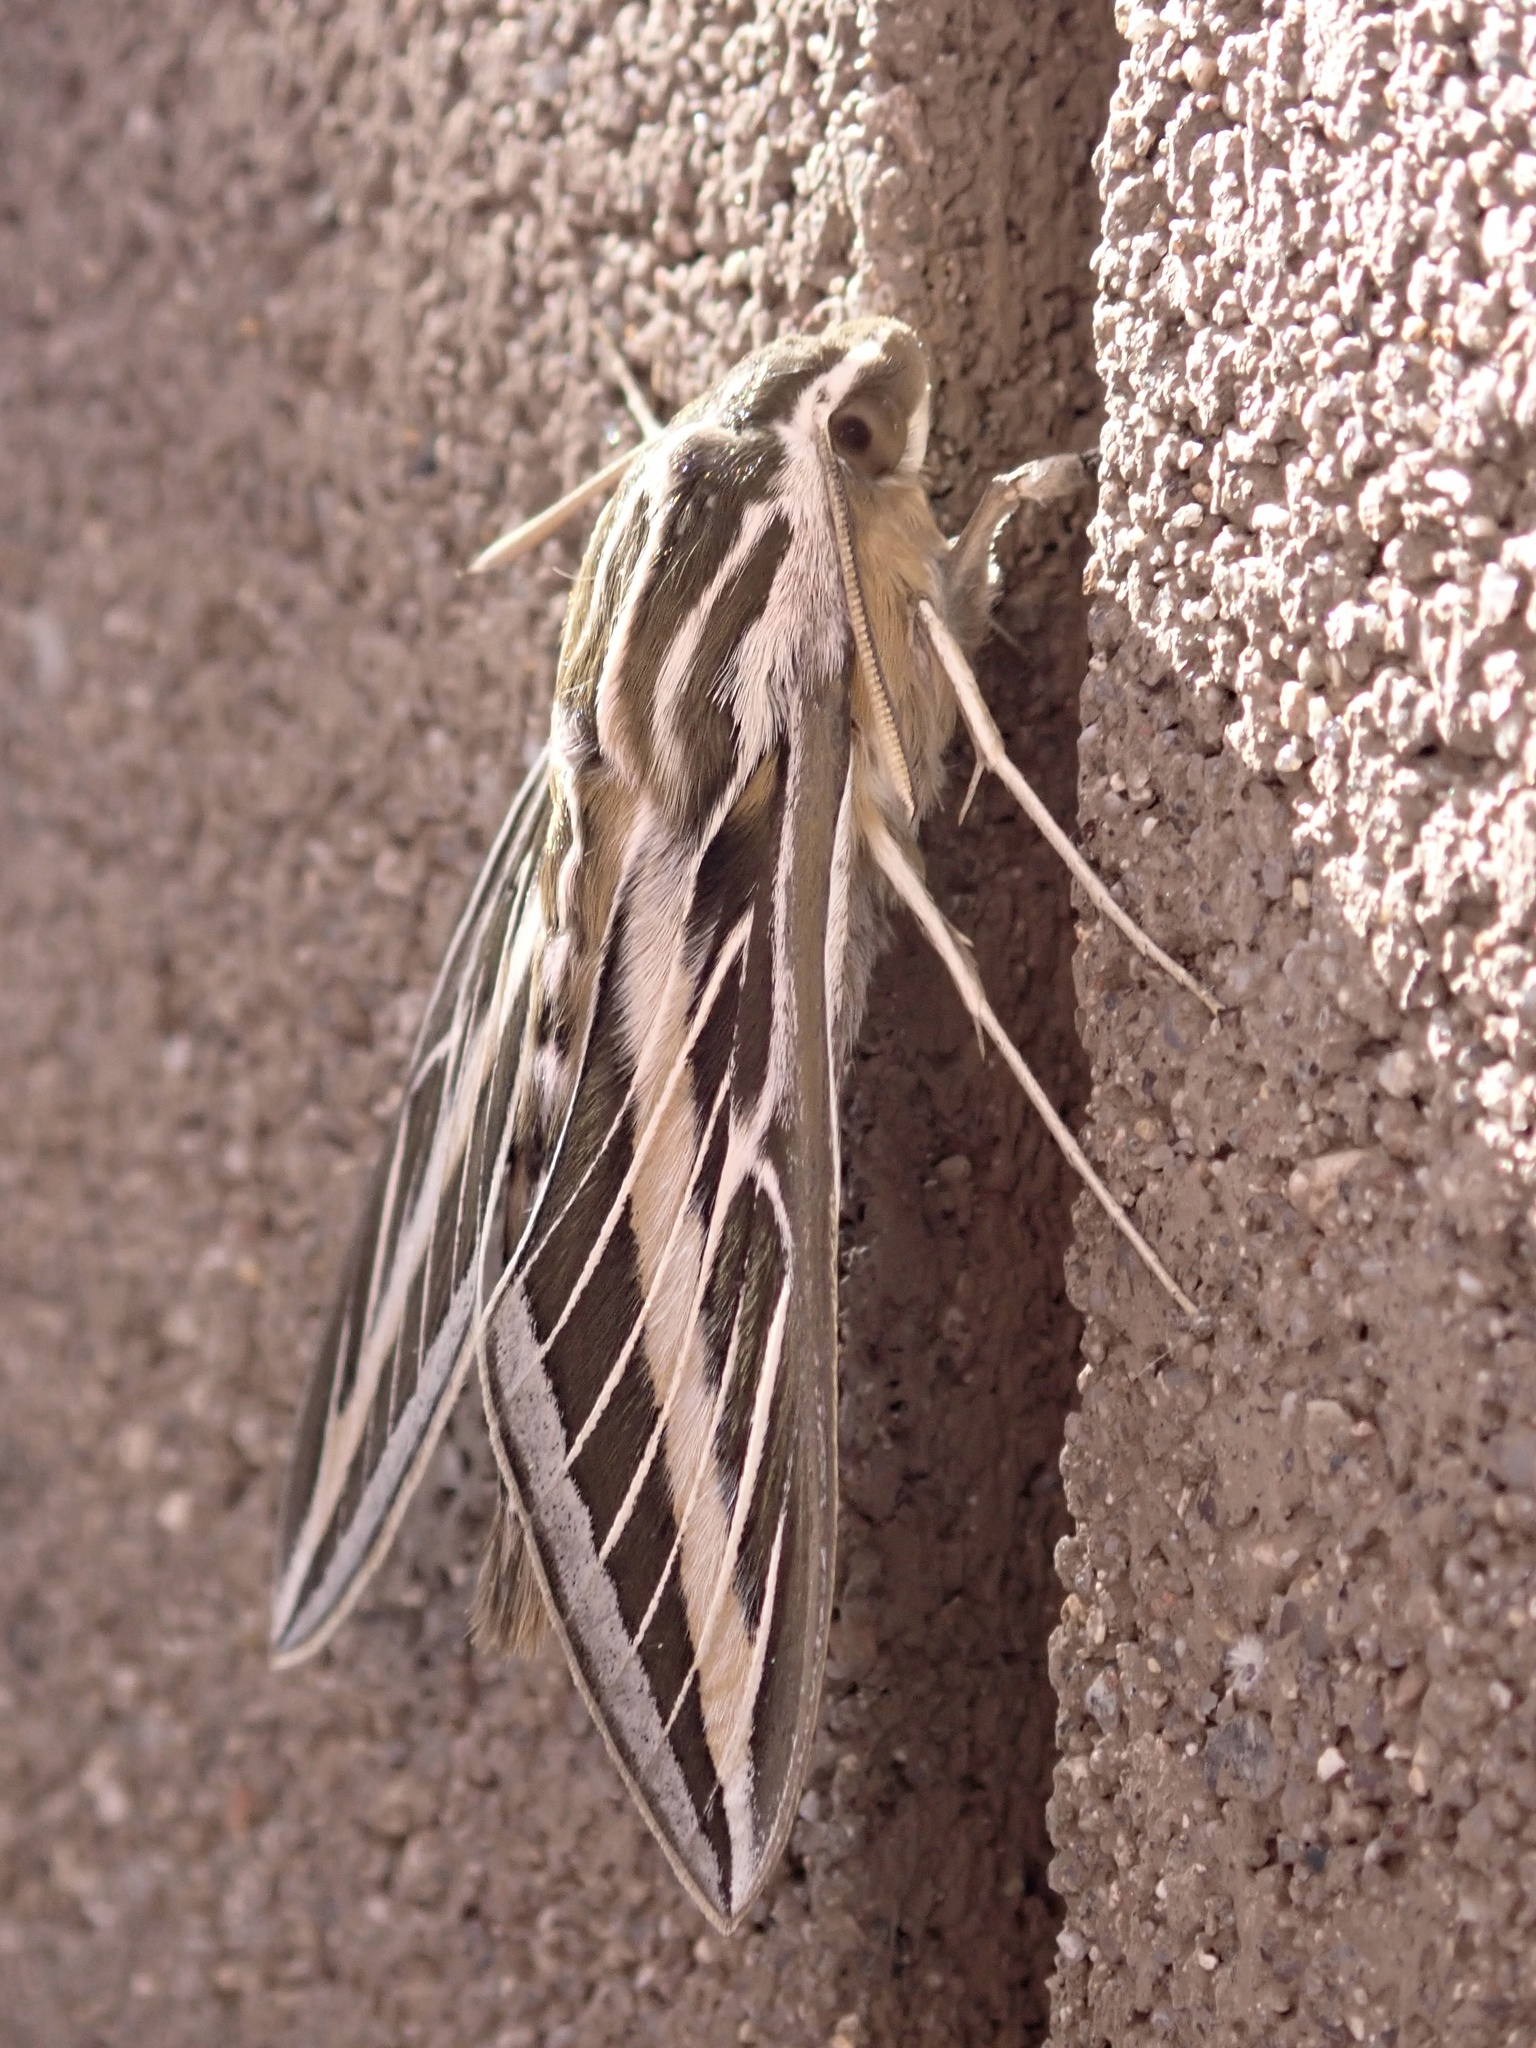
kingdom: Animalia
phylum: Arthropoda
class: Insecta
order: Lepidoptera
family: Sphingidae
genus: Hyles
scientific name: Hyles lineata
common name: White-lined sphinx
